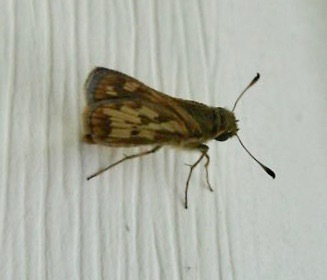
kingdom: Animalia
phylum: Arthropoda
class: Insecta
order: Lepidoptera
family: Hesperiidae
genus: Polites
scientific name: Polites coras
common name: Peck's skipper
